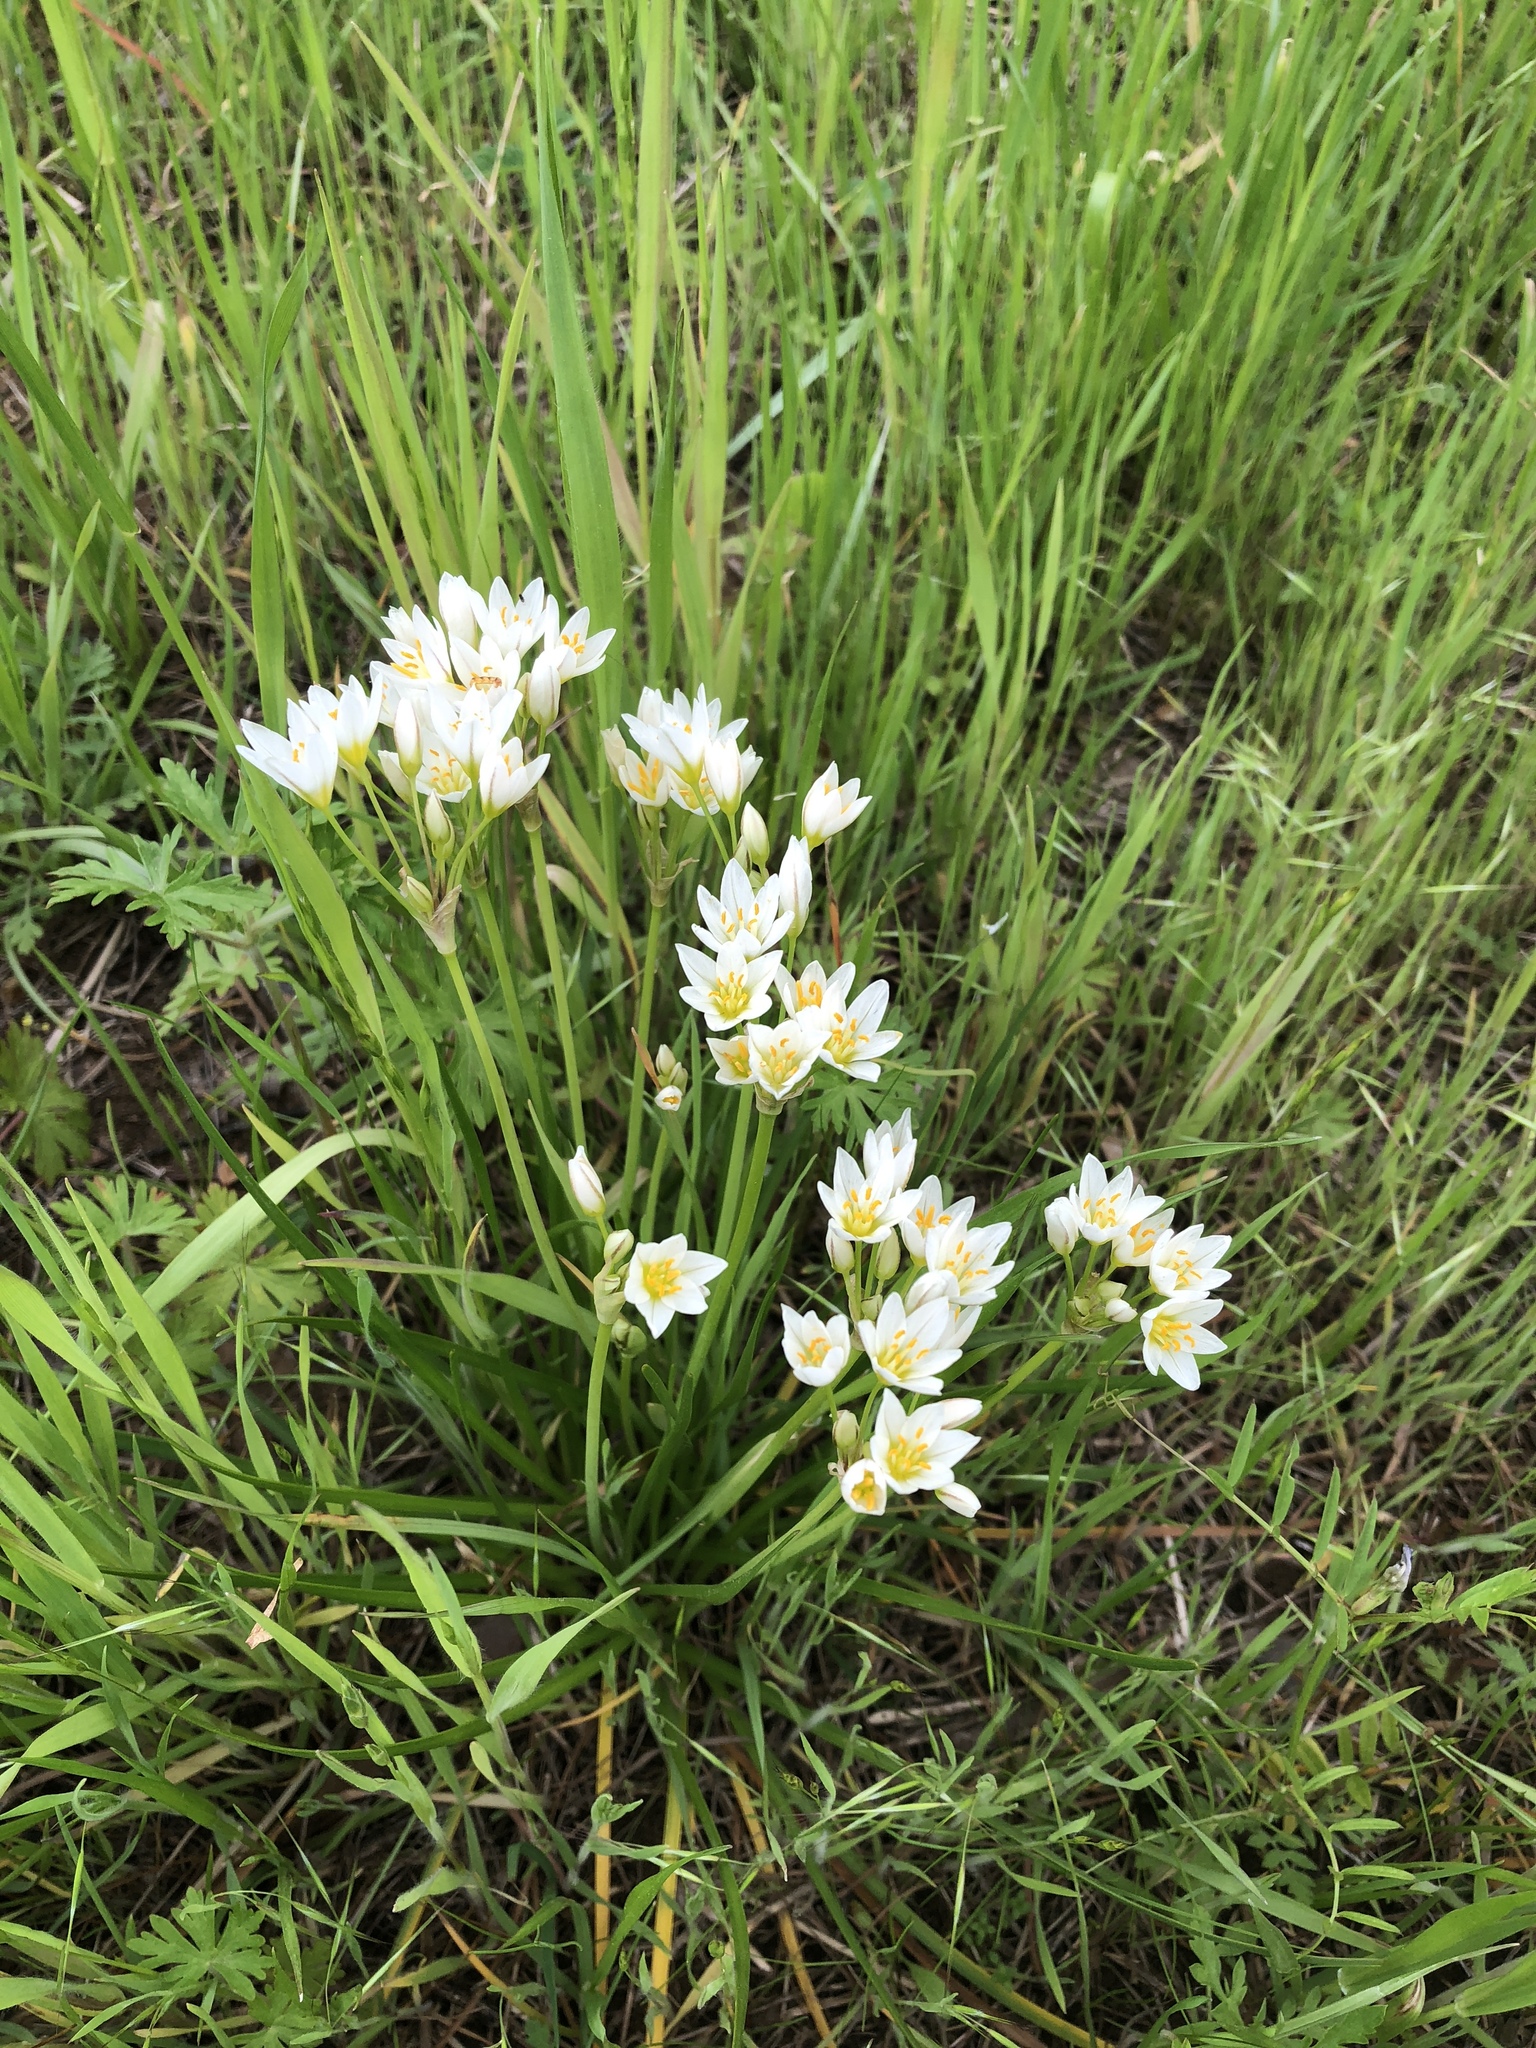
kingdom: Plantae
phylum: Tracheophyta
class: Liliopsida
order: Asparagales
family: Amaryllidaceae
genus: Nothoscordum
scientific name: Nothoscordum bivalve
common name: Crow-poison
